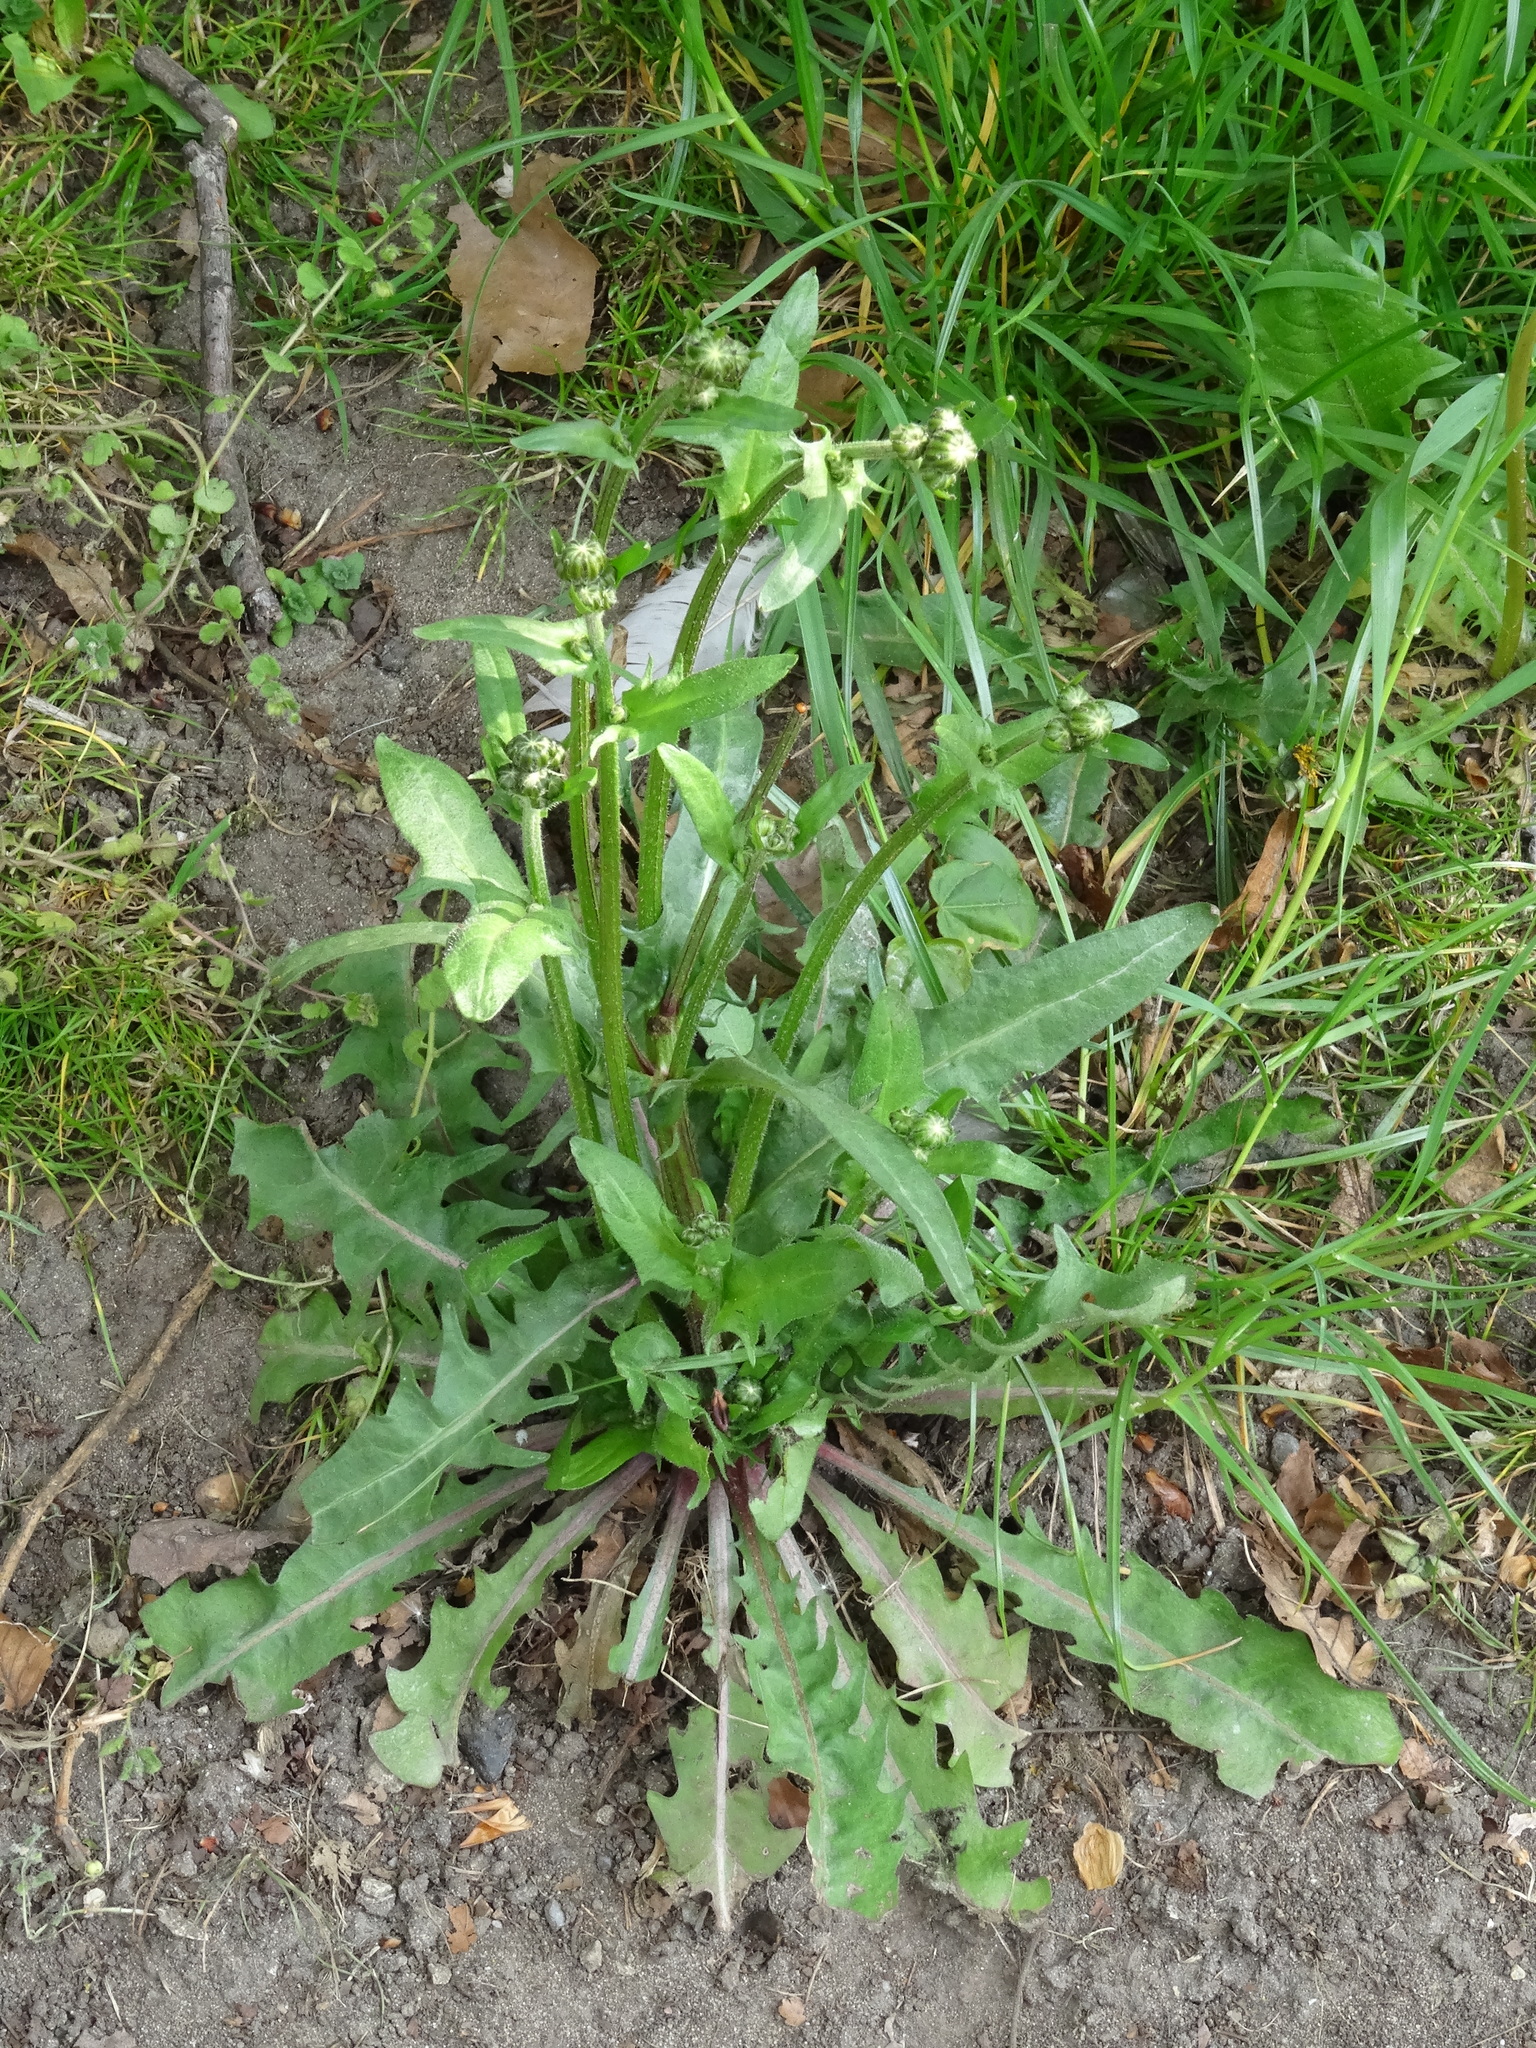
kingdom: Plantae
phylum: Tracheophyta
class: Magnoliopsida
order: Asterales
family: Asteraceae
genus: Crepis
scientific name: Crepis capillaris
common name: Smooth hawksbeard
